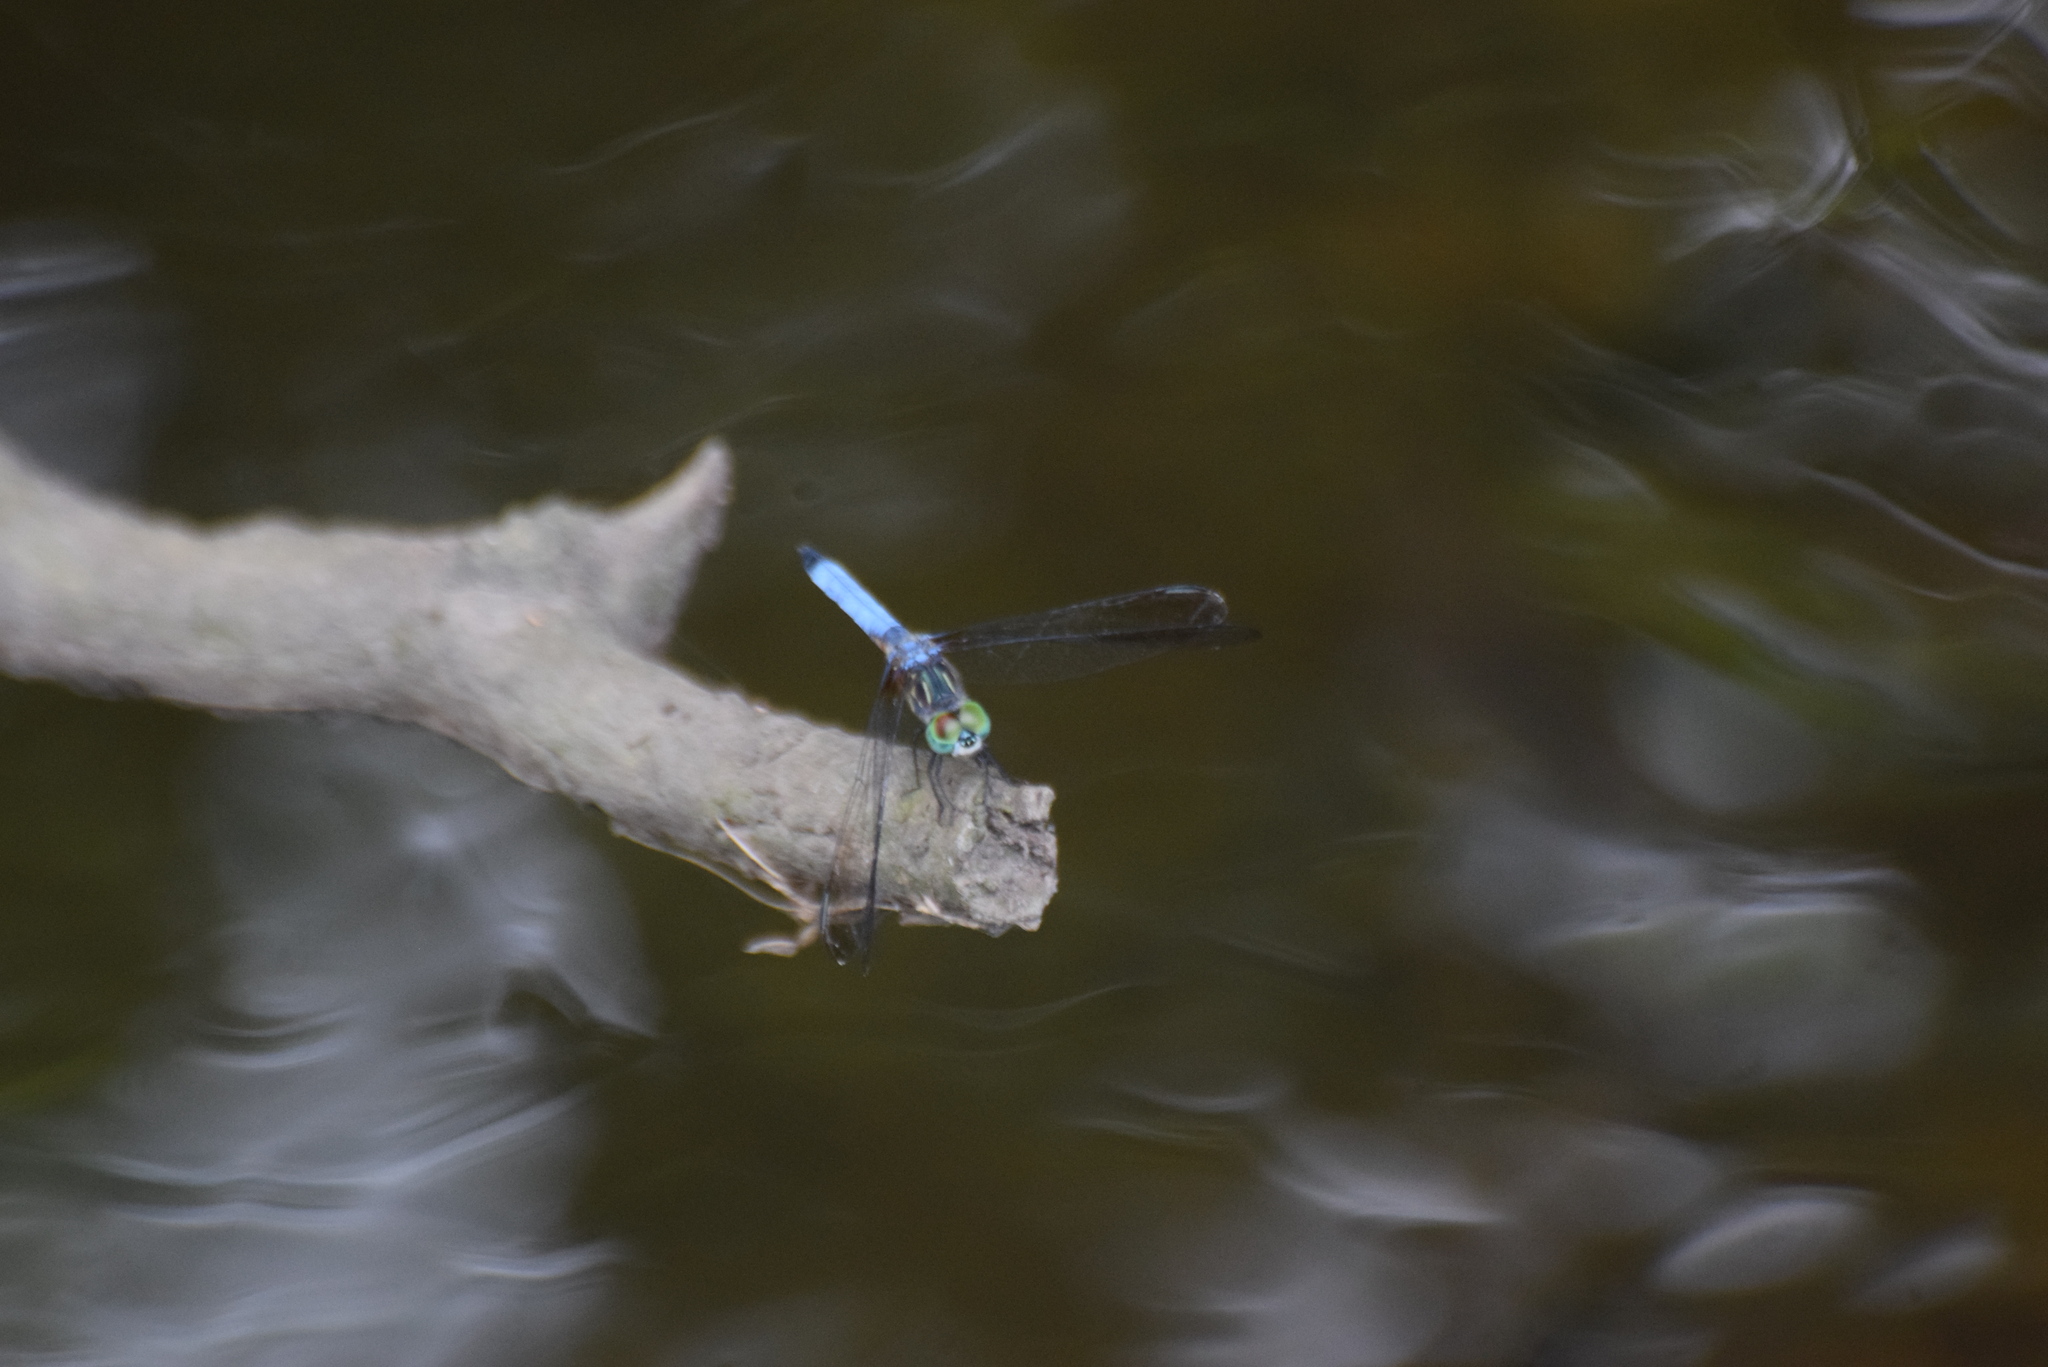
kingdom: Animalia
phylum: Arthropoda
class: Insecta
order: Odonata
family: Libellulidae
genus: Pachydiplax
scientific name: Pachydiplax longipennis
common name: Blue dasher
